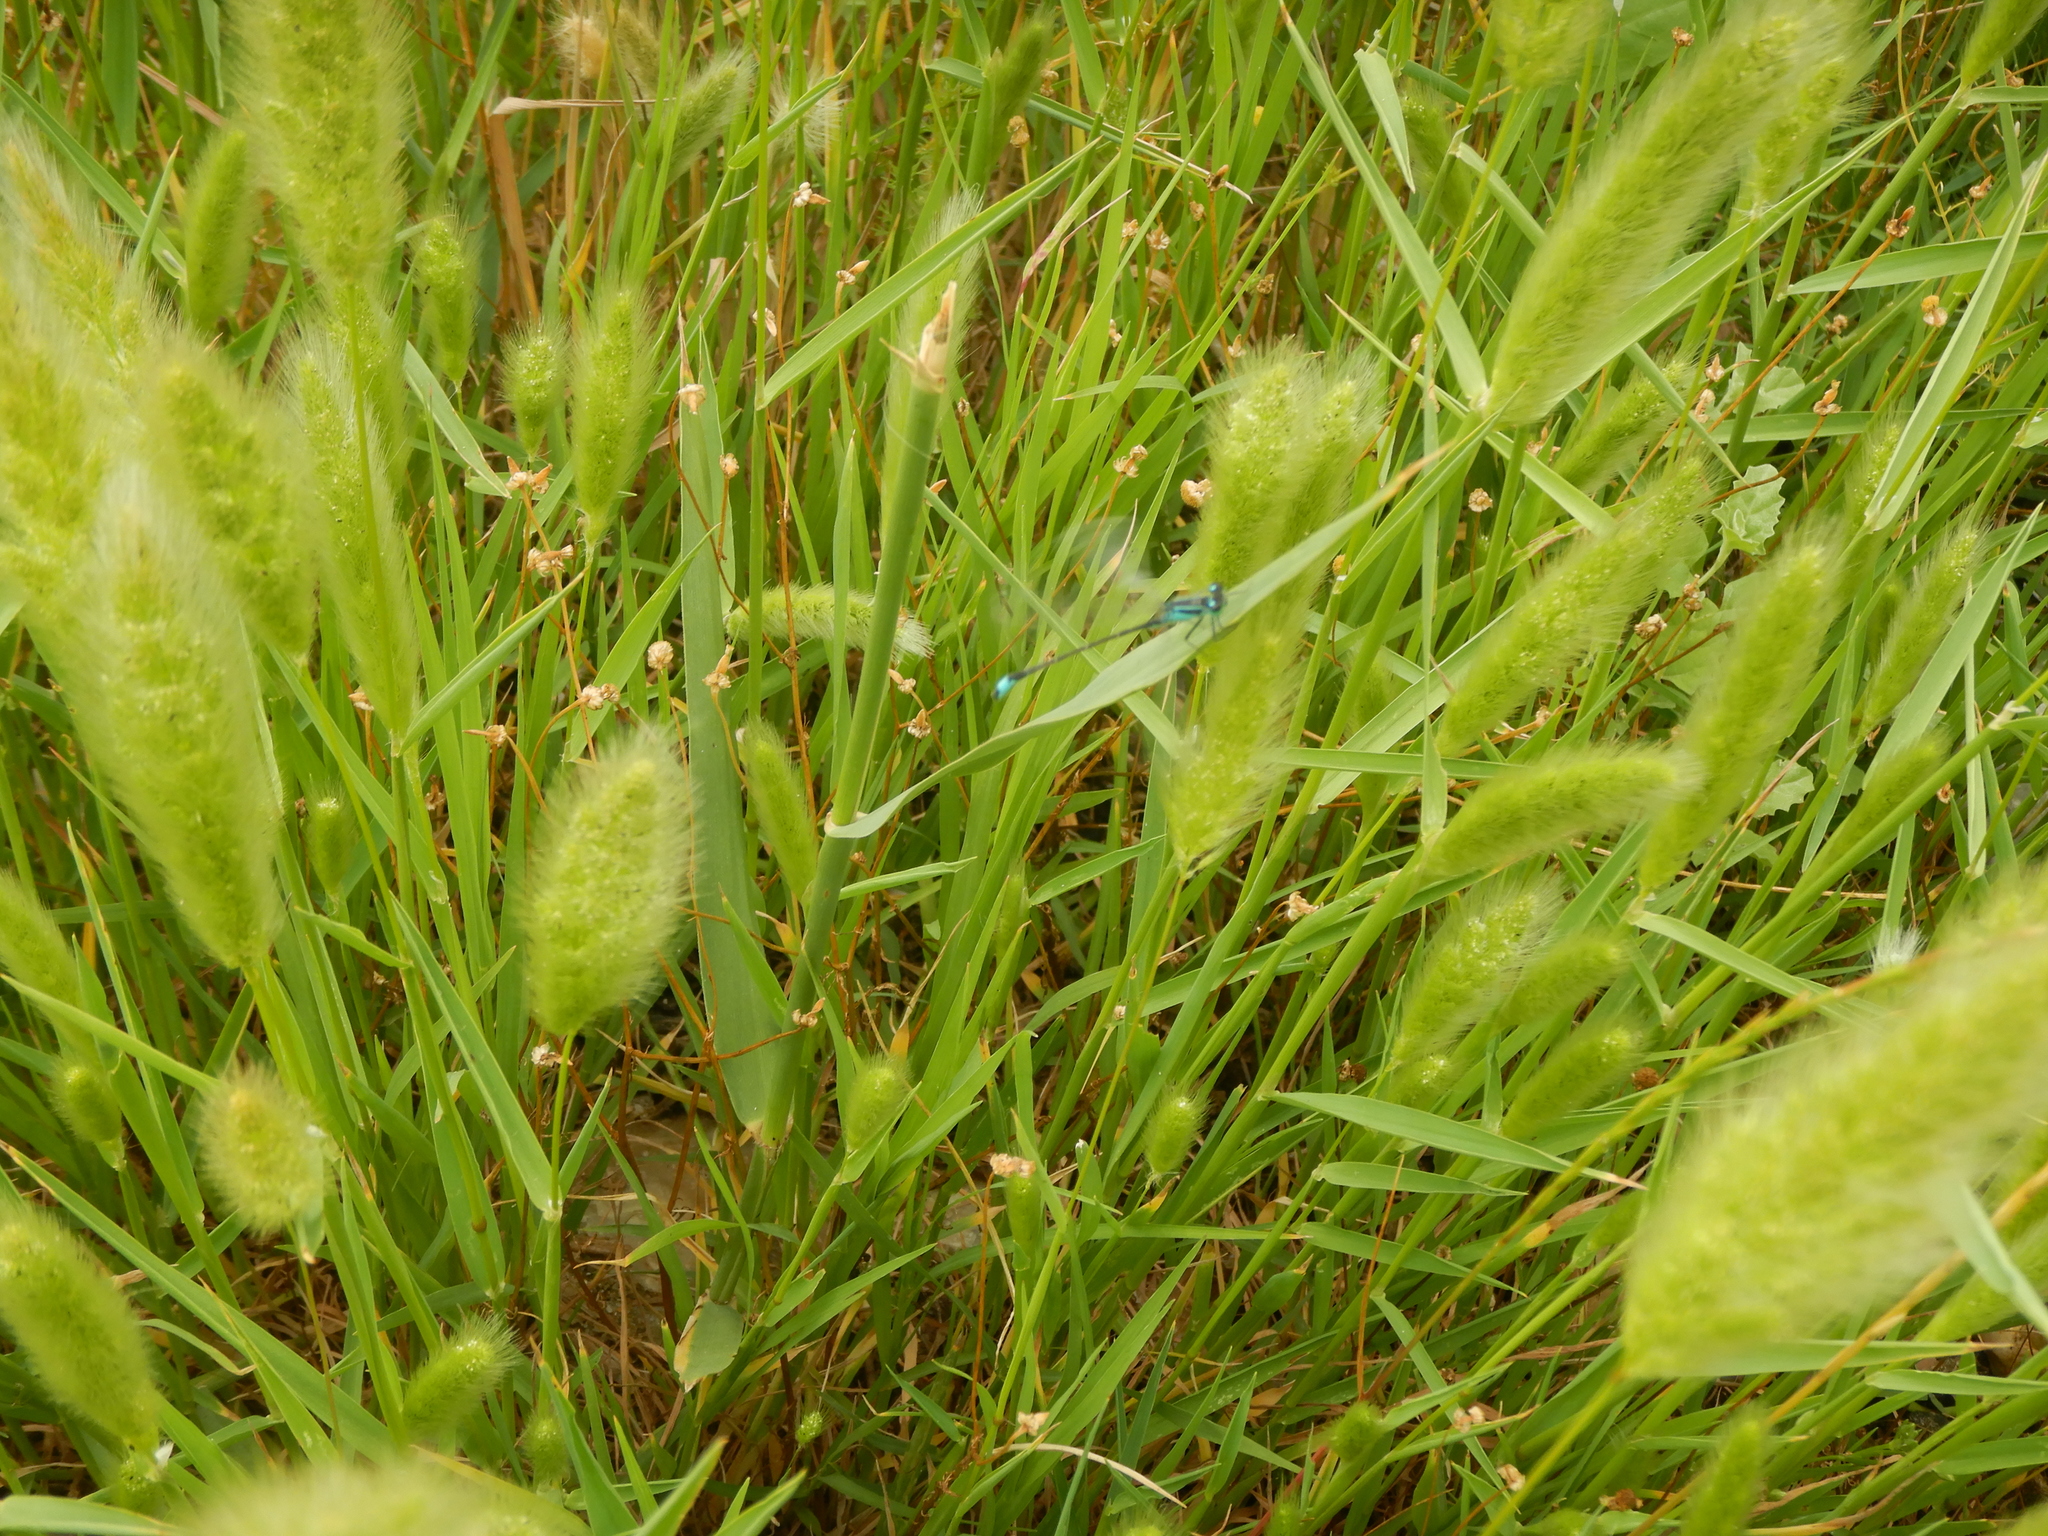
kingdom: Animalia
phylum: Arthropoda
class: Insecta
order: Odonata
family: Coenagrionidae
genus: Ischnura
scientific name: Ischnura elegans
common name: Blue-tailed damselfly
